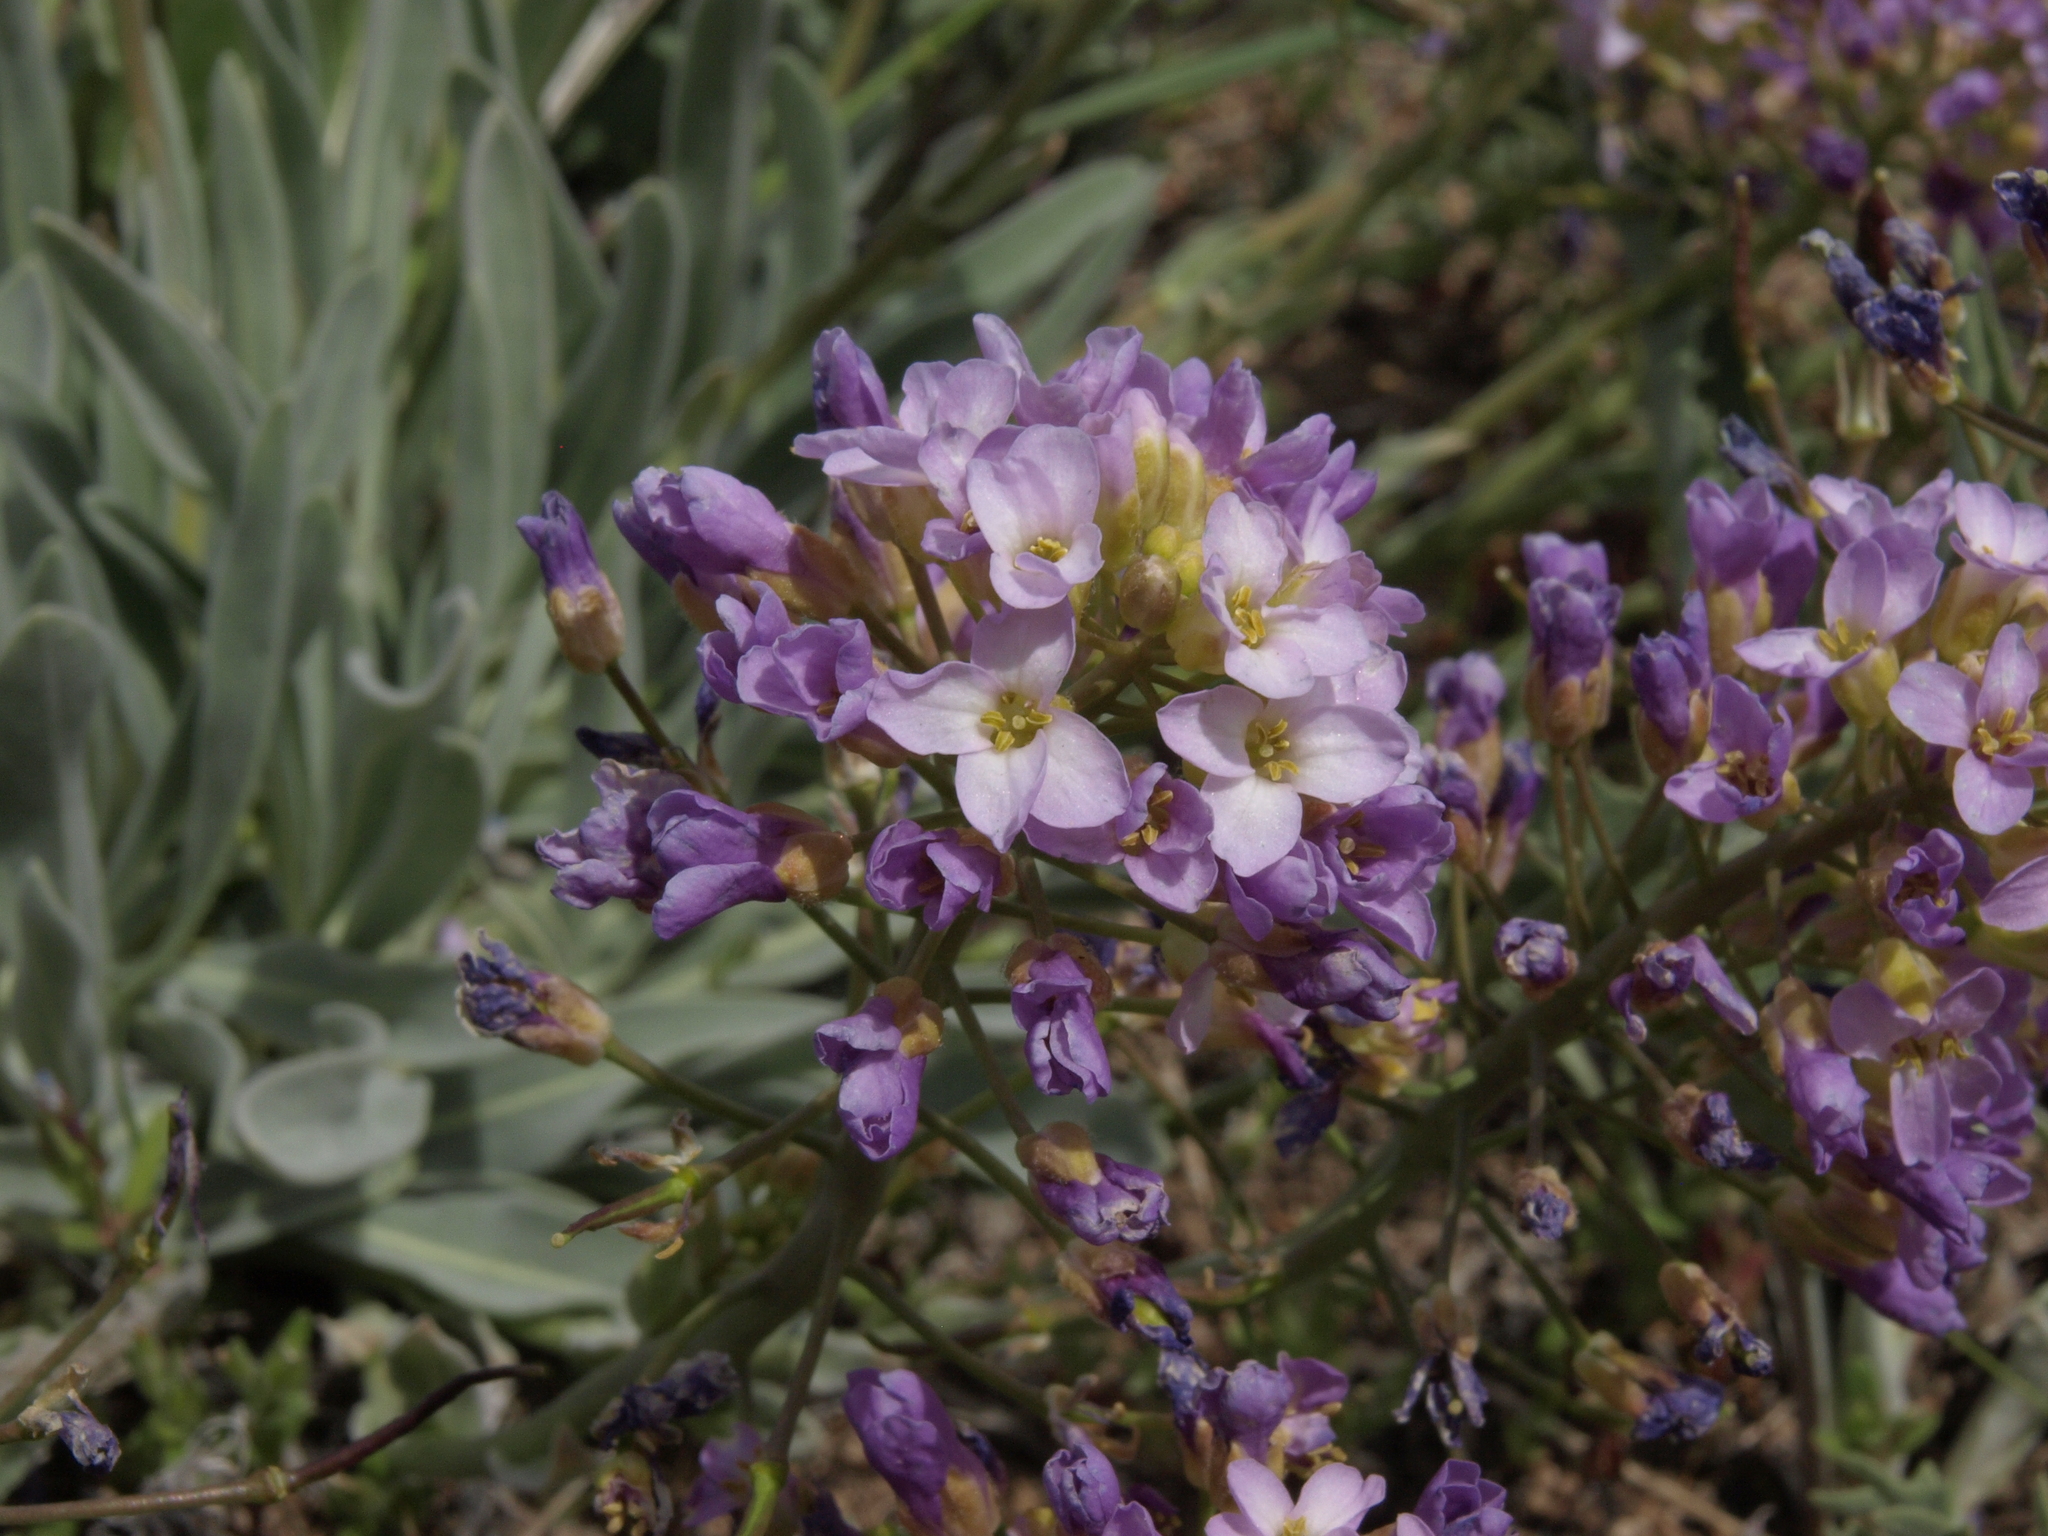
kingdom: Plantae
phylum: Tracheophyta
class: Magnoliopsida
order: Brassicales
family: Brassicaceae
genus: Phoenicaulis
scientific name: Phoenicaulis cheiranthoides
